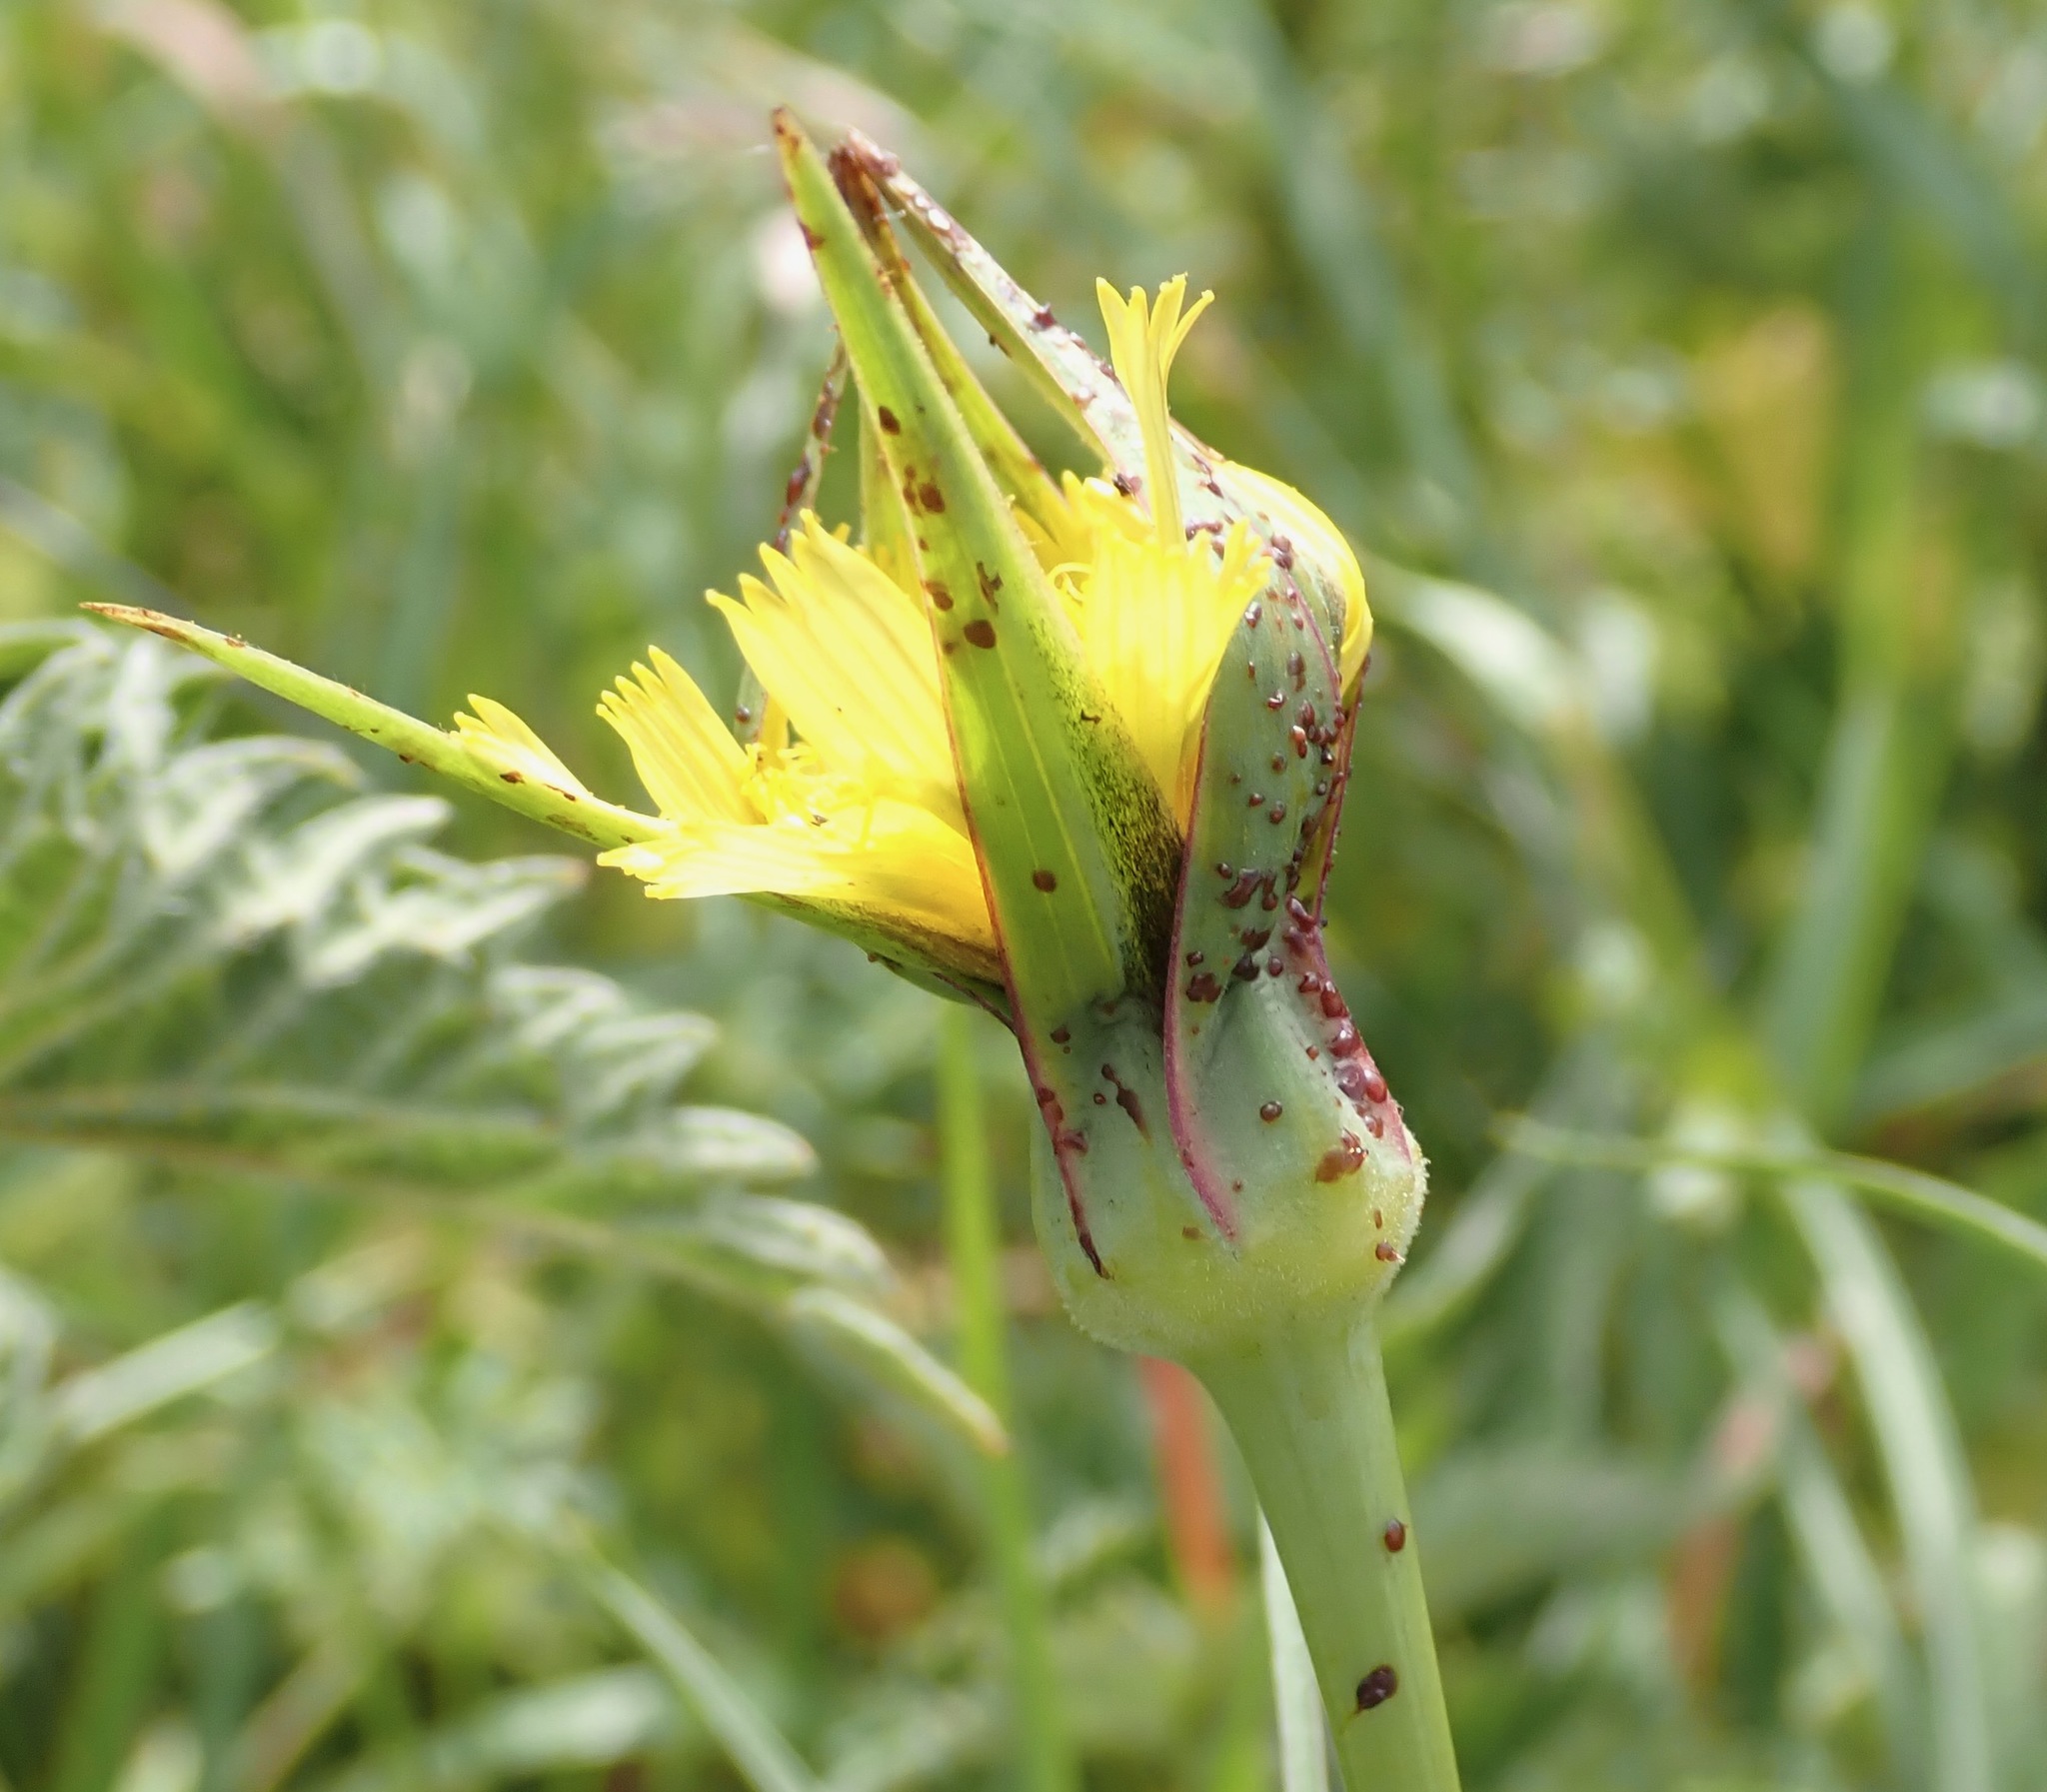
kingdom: Plantae
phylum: Tracheophyta
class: Magnoliopsida
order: Asterales
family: Asteraceae
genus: Tragopogon
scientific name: Tragopogon minor
